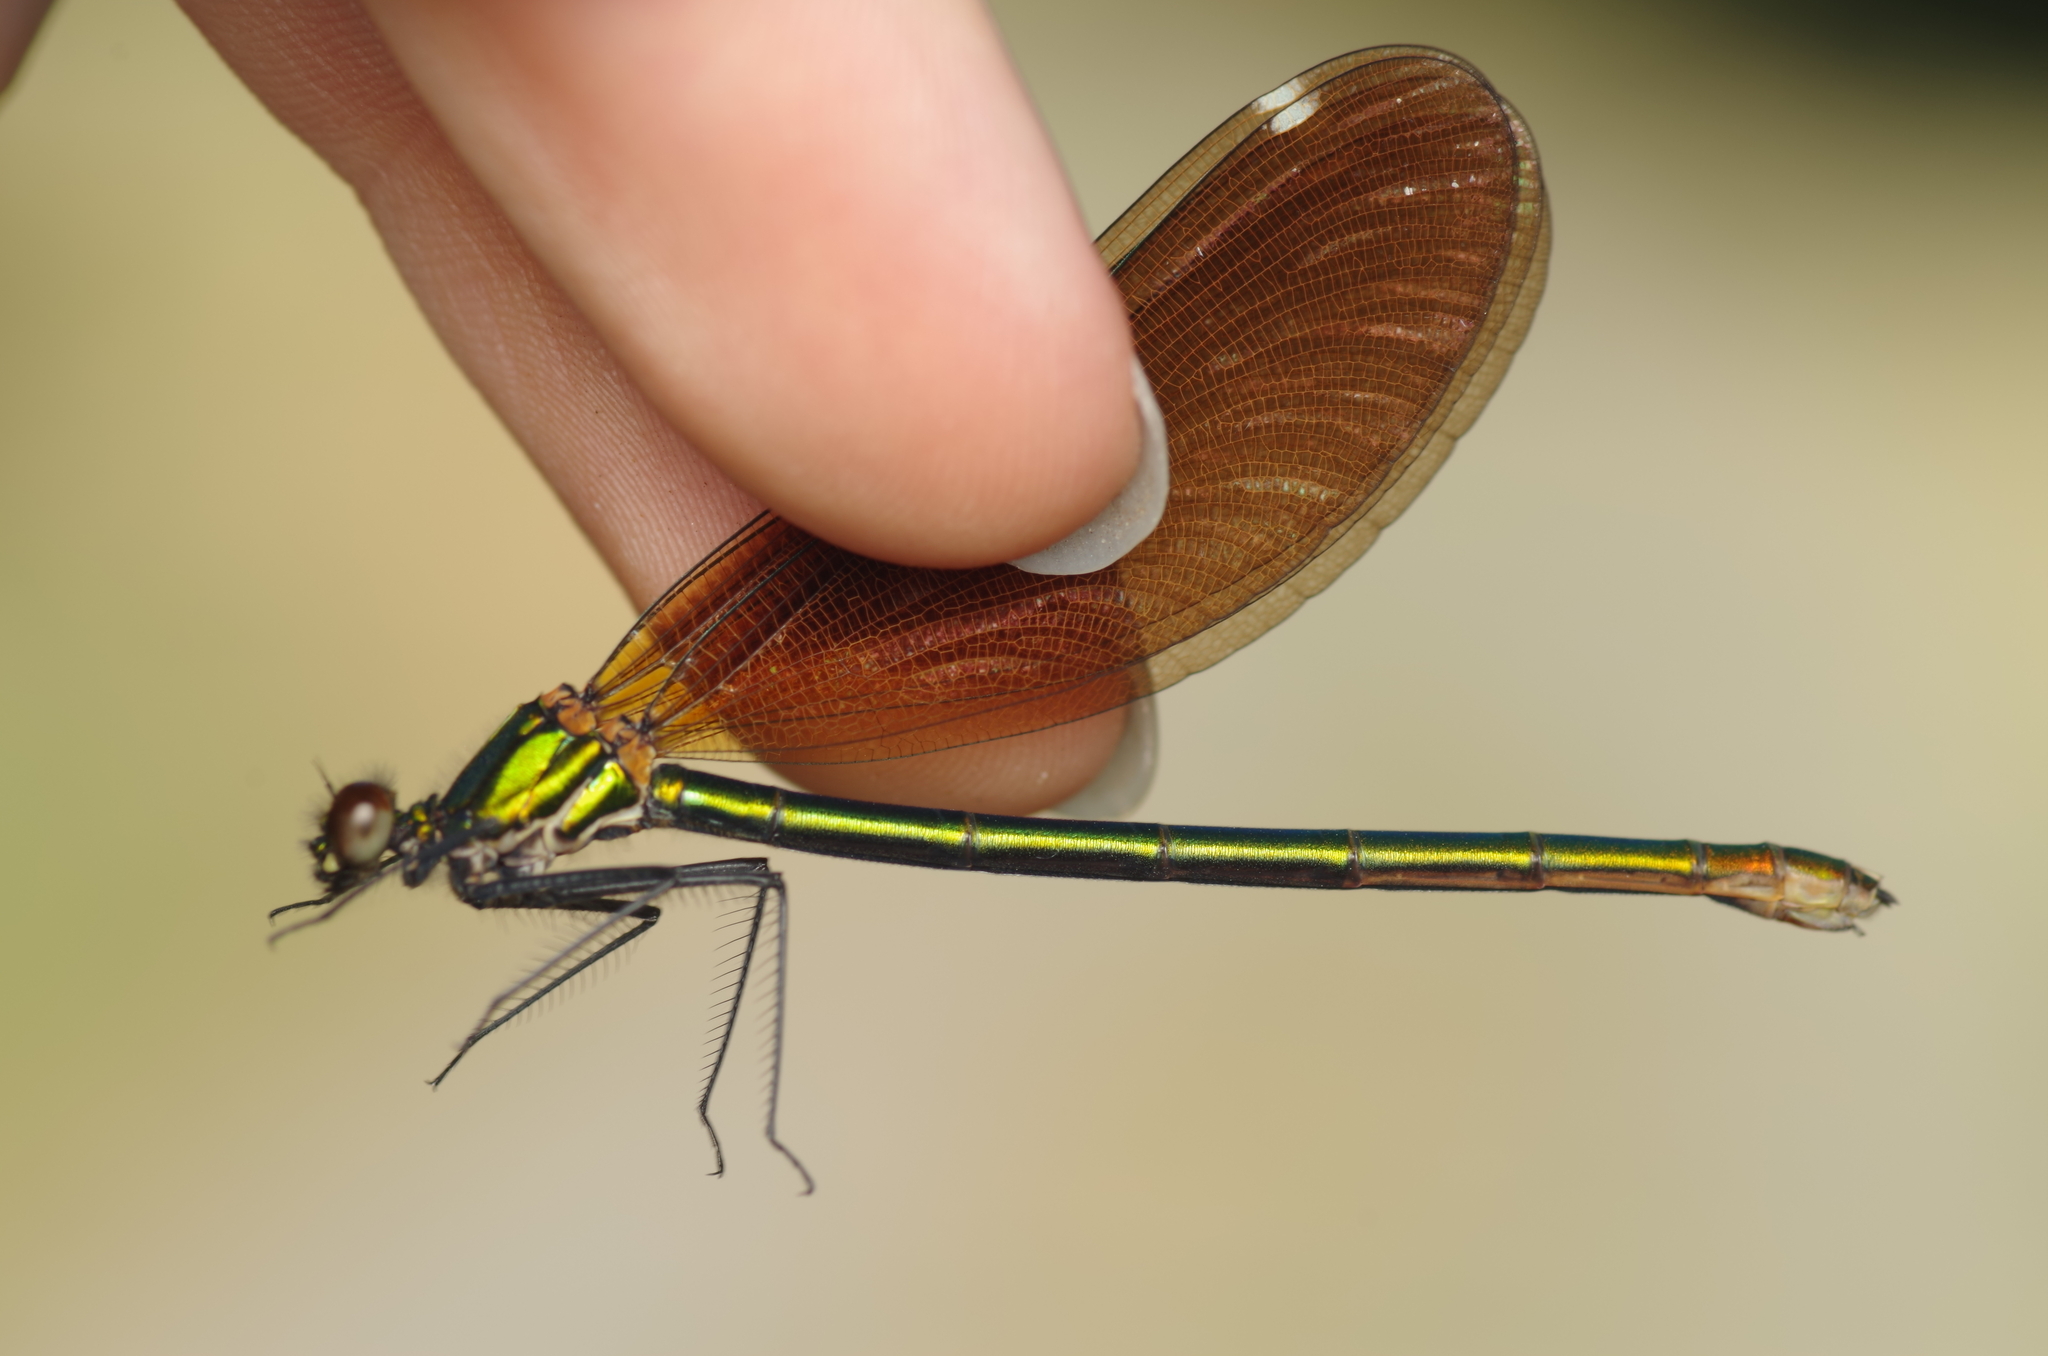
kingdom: Animalia
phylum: Arthropoda
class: Insecta
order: Odonata
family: Calopterygidae
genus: Calopteryx
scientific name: Calopteryx virgo
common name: Beautiful demoiselle
